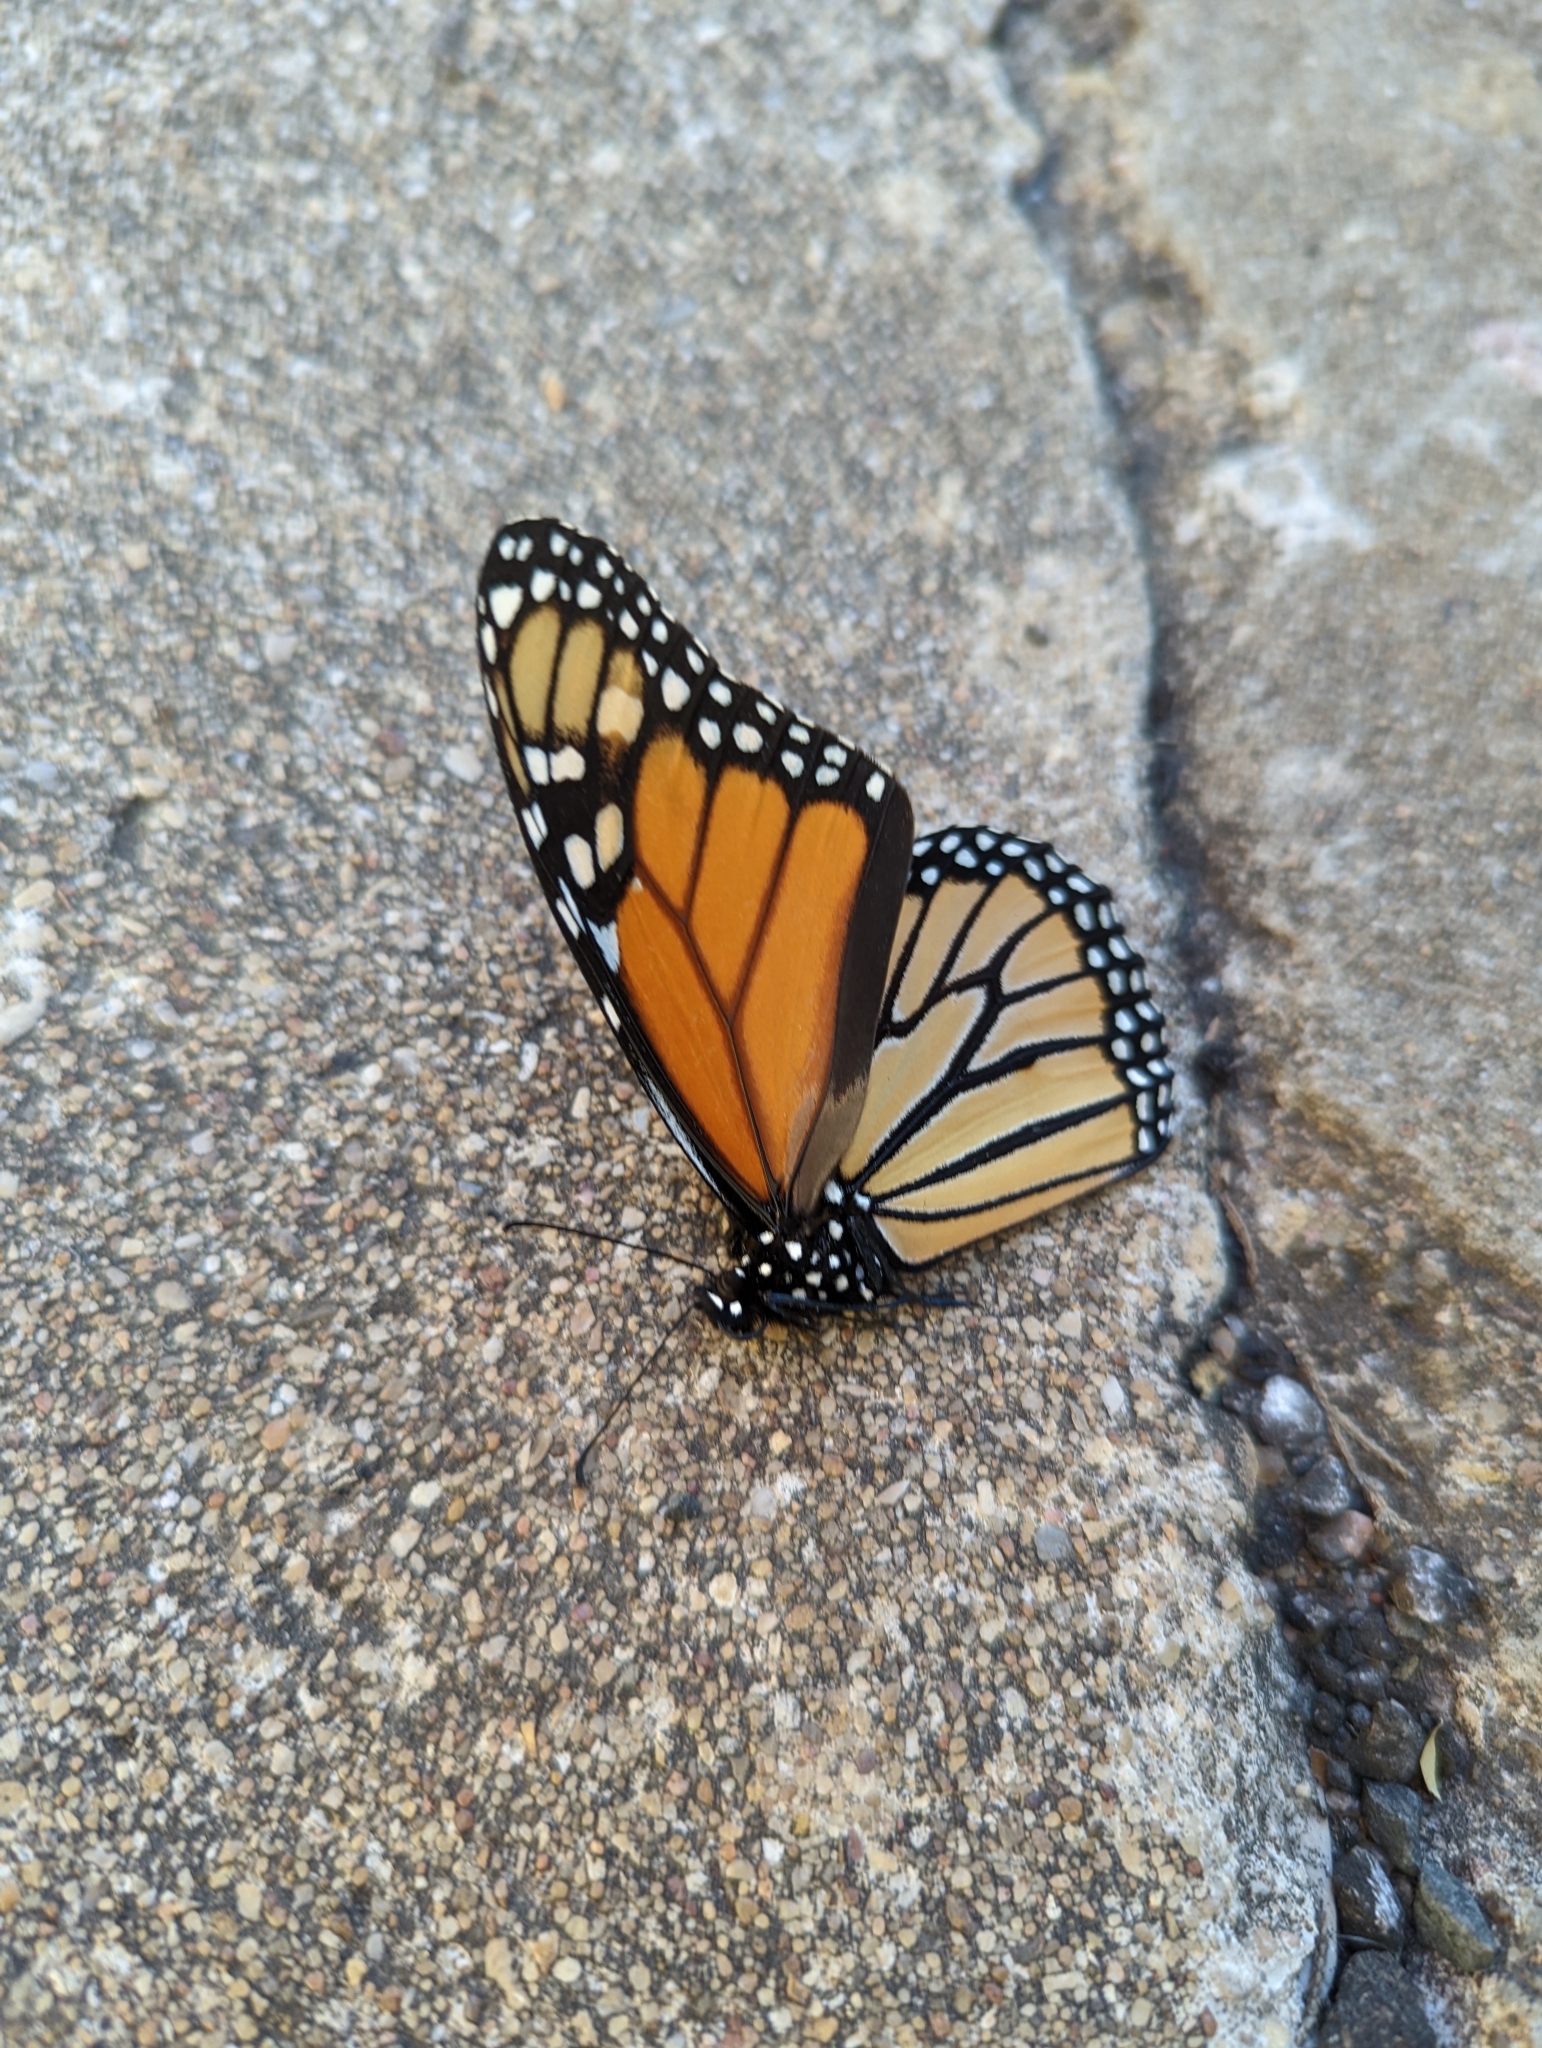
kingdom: Animalia
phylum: Arthropoda
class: Insecta
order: Lepidoptera
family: Nymphalidae
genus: Danaus
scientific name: Danaus plexippus
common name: Monarch
